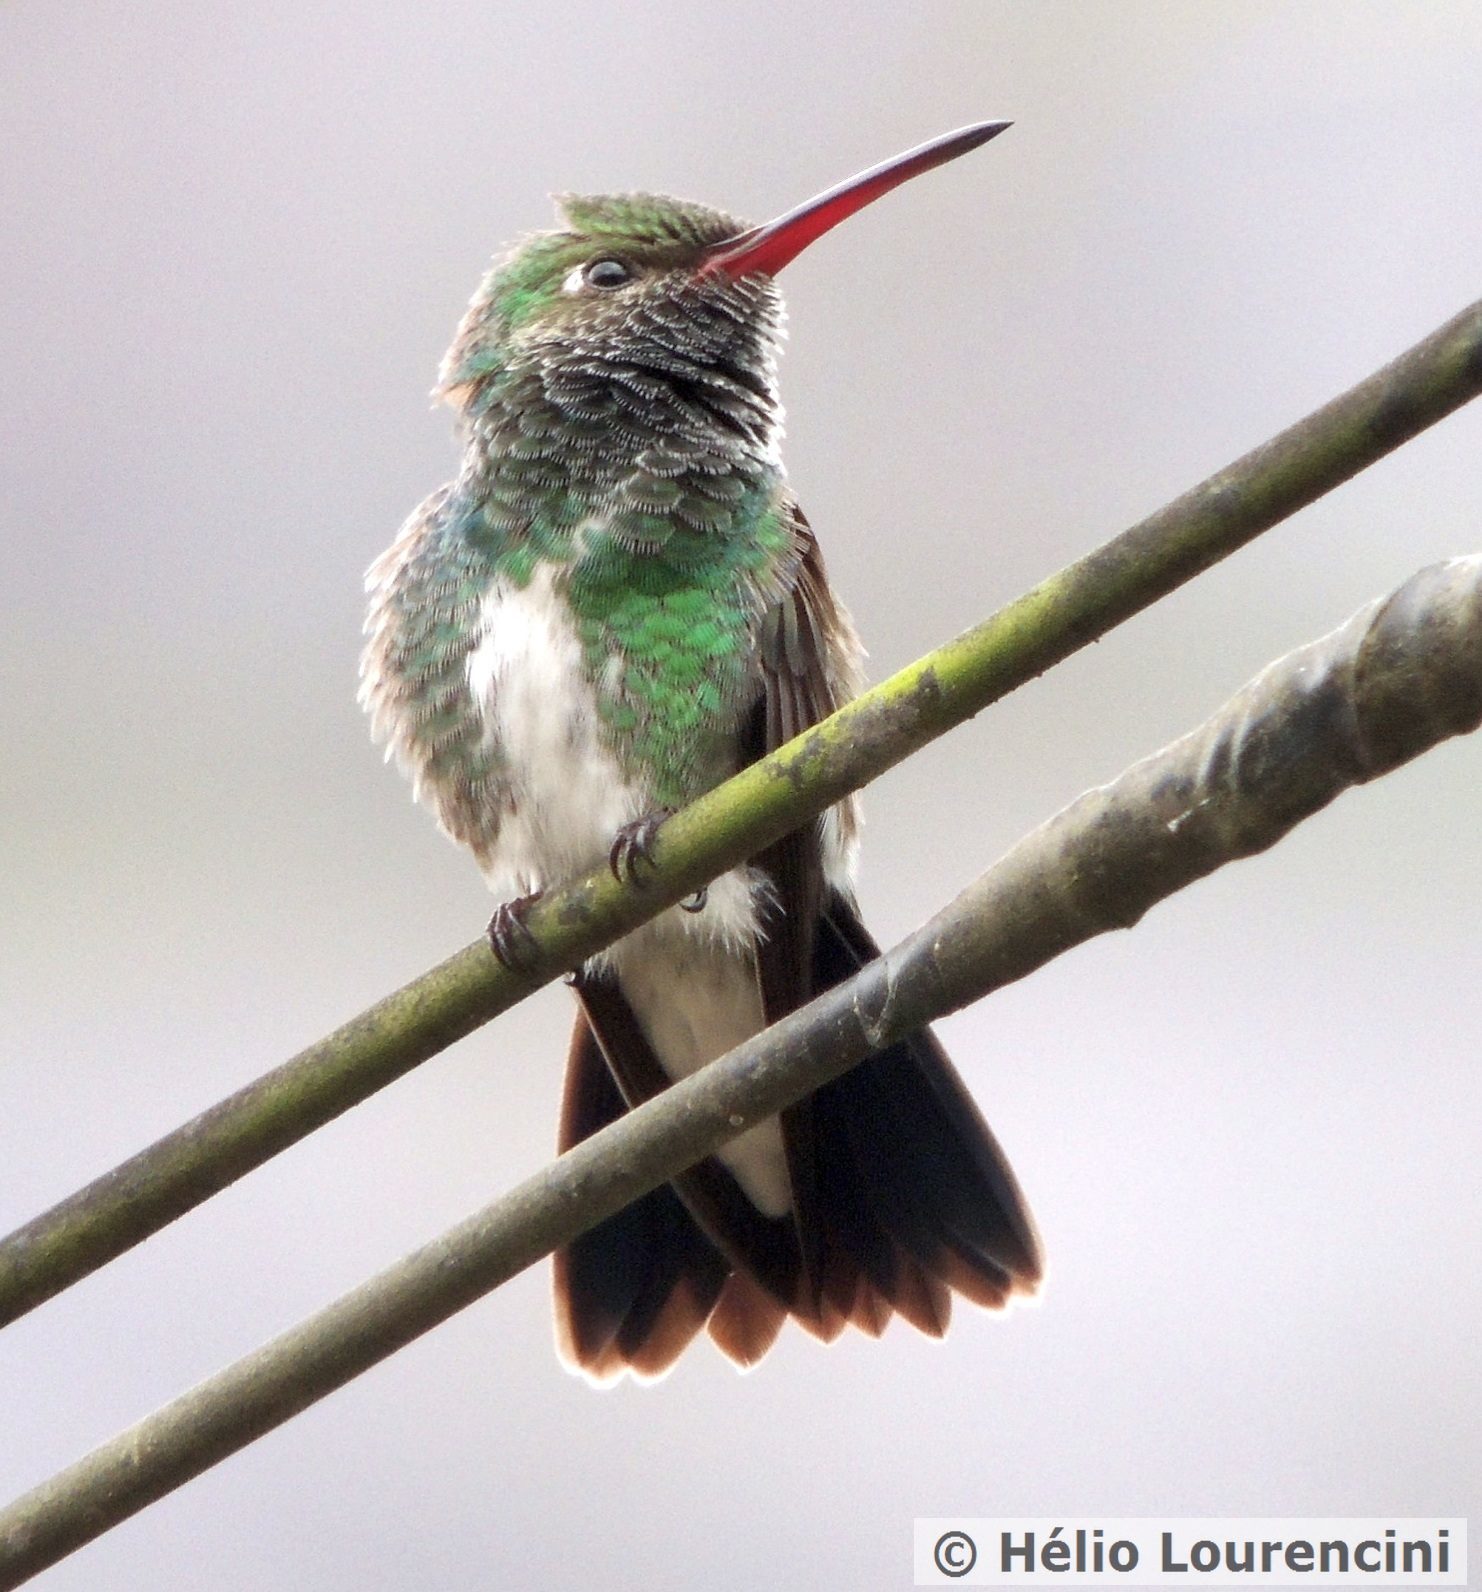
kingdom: Animalia
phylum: Chordata
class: Aves
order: Apodiformes
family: Trochilidae
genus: Chionomesa
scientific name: Chionomesa fimbriata
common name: Glittering-throated emerald
